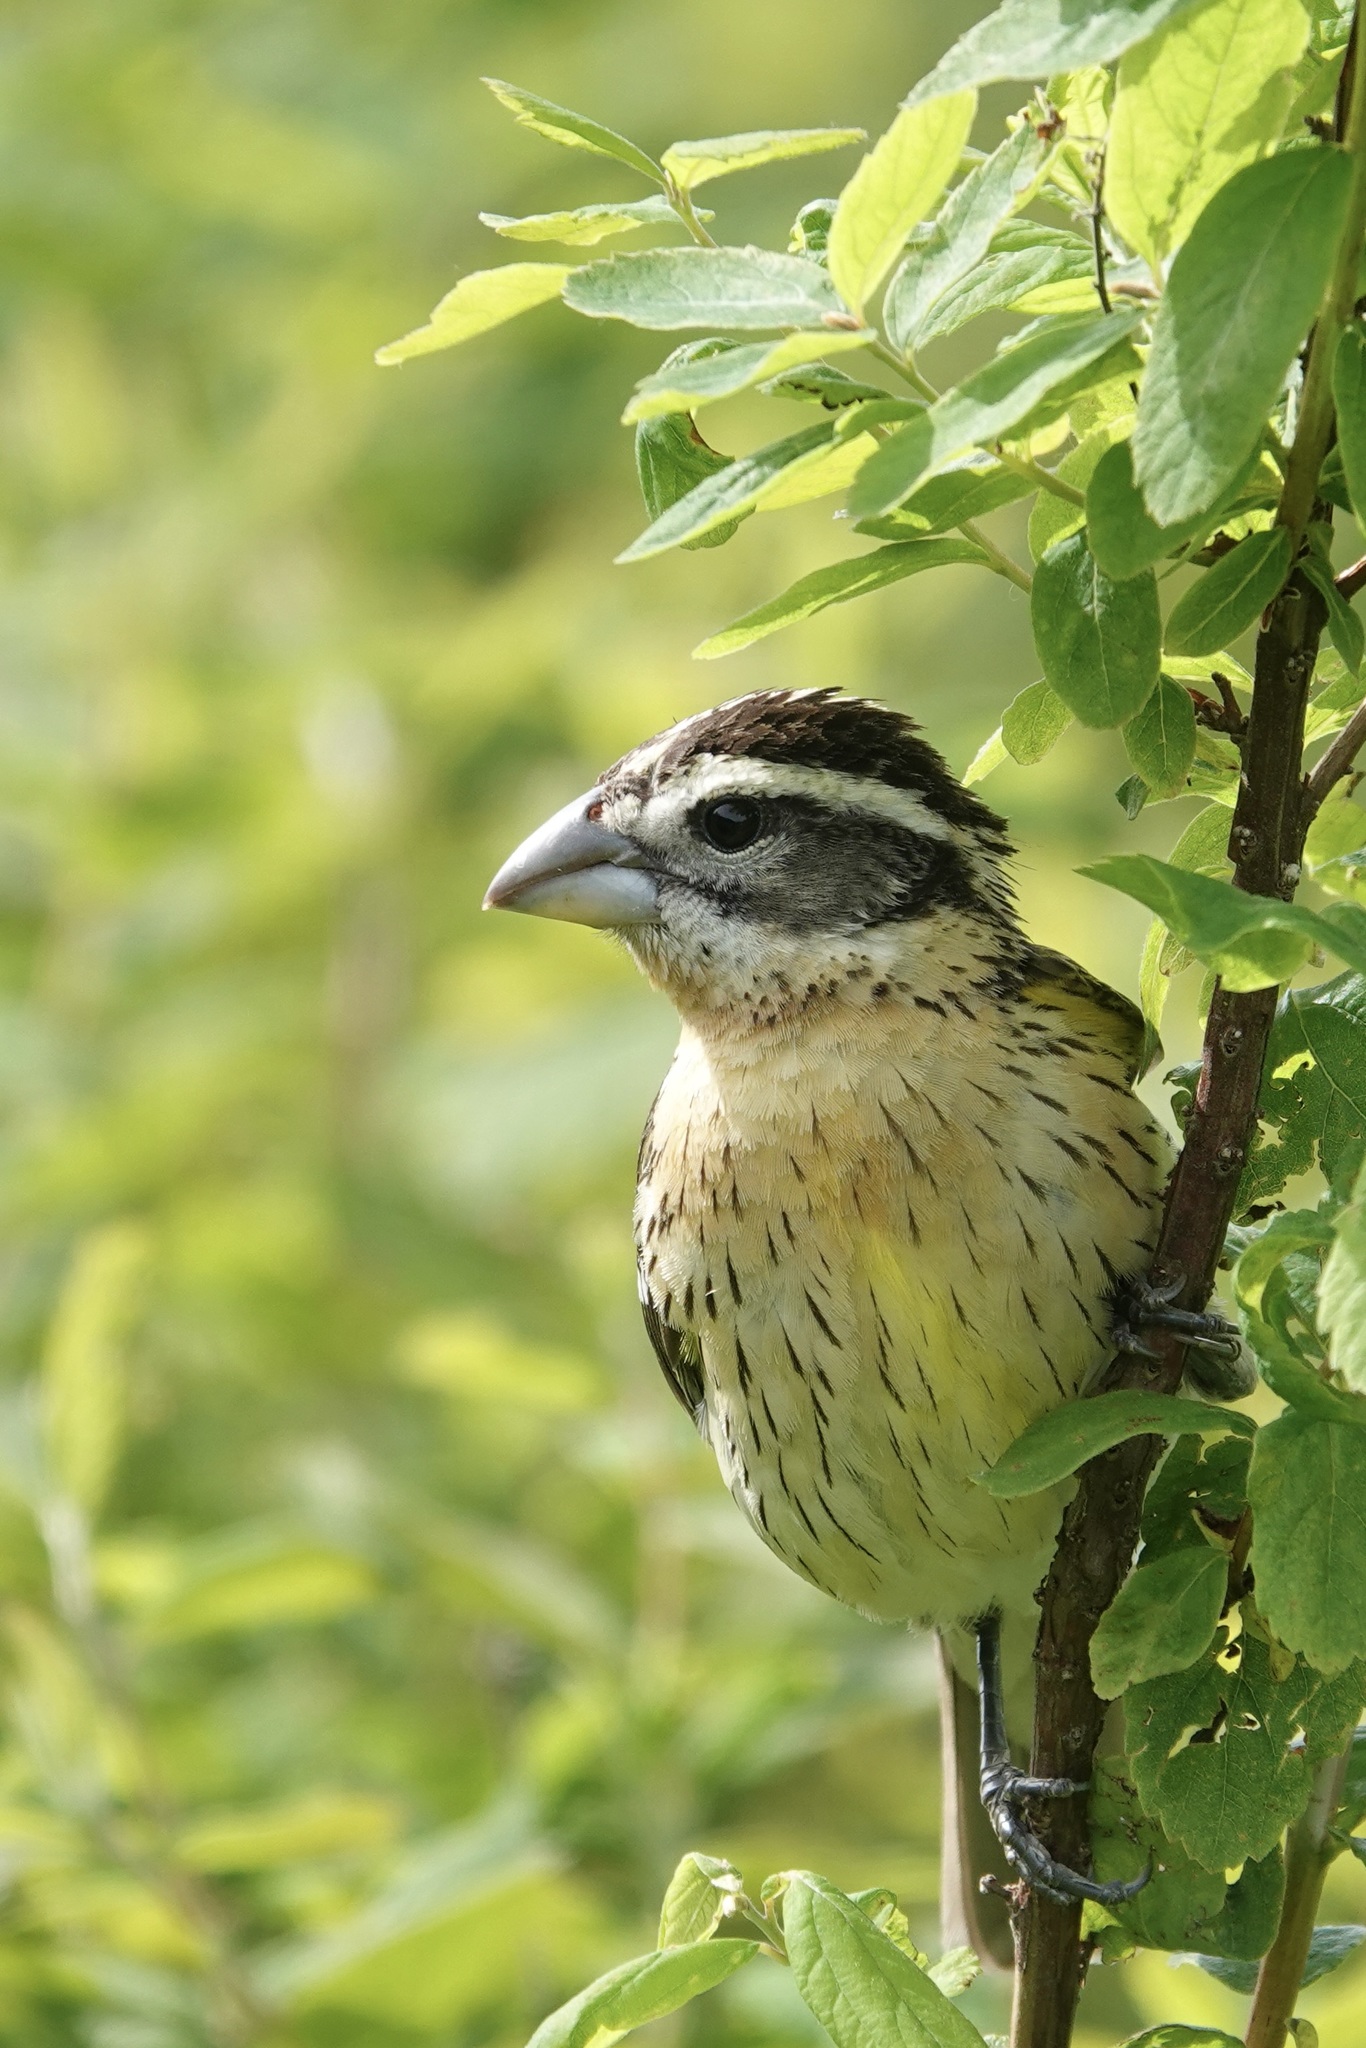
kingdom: Animalia
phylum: Chordata
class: Aves
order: Passeriformes
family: Cardinalidae
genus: Pheucticus
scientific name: Pheucticus melanocephalus
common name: Black-headed grosbeak
